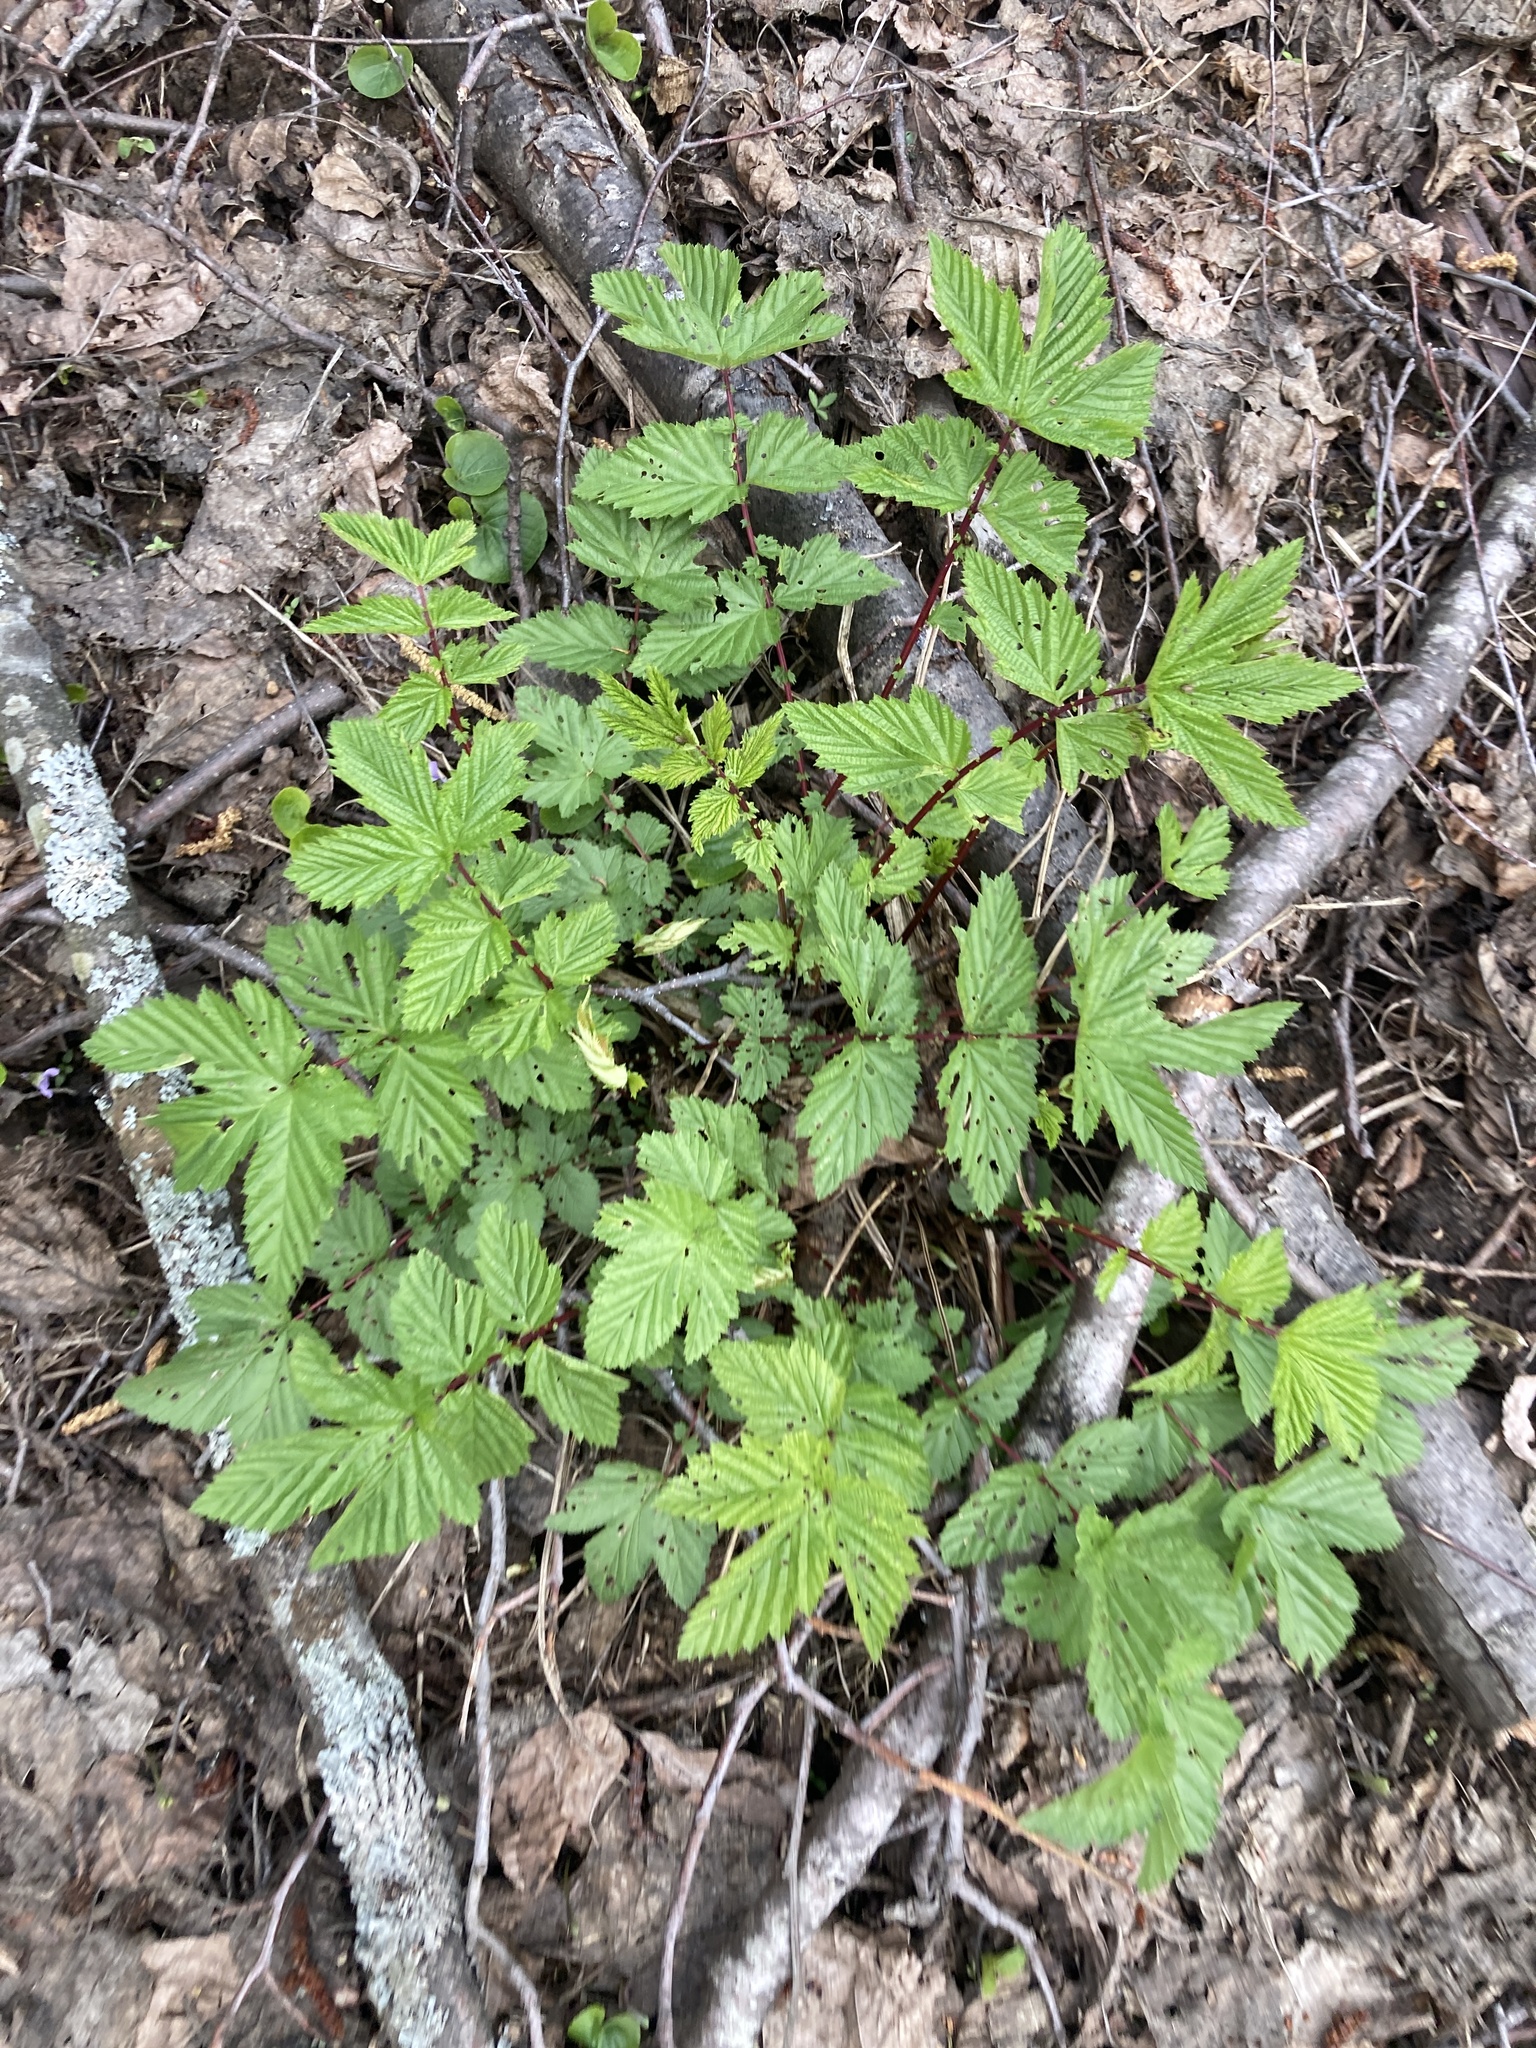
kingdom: Plantae
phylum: Tracheophyta
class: Magnoliopsida
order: Rosales
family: Rosaceae
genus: Filipendula
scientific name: Filipendula ulmaria
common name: Meadowsweet
